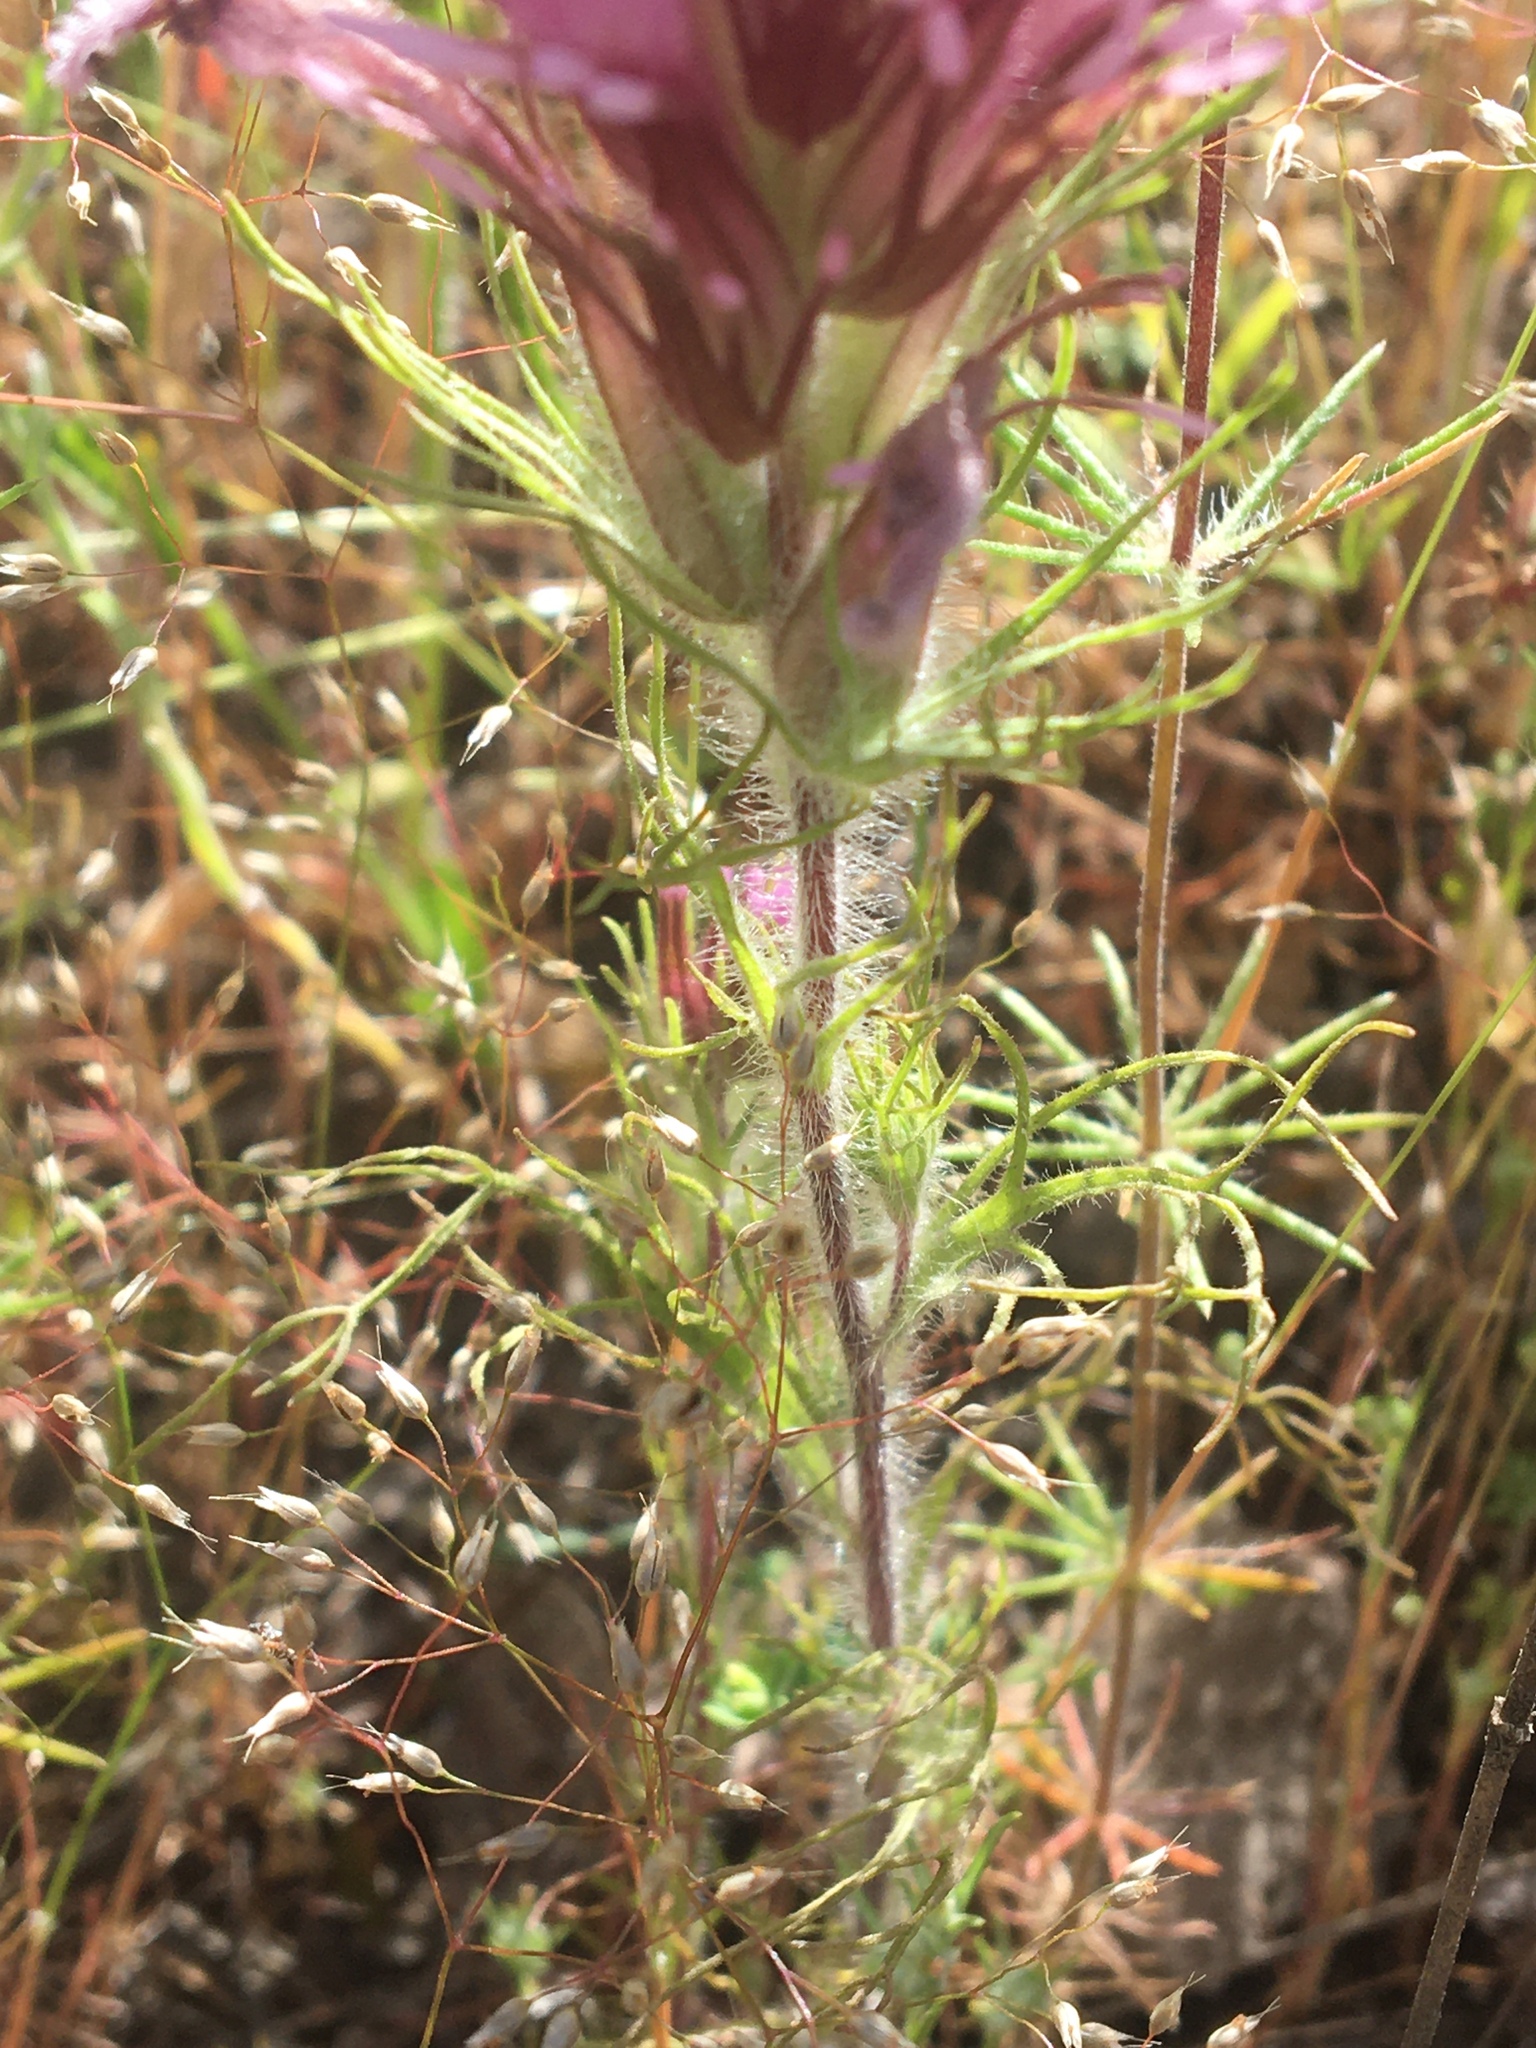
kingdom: Plantae
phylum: Tracheophyta
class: Magnoliopsida
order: Lamiales
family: Orobanchaceae
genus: Castilleja
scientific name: Castilleja exserta
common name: Purple owl-clover
